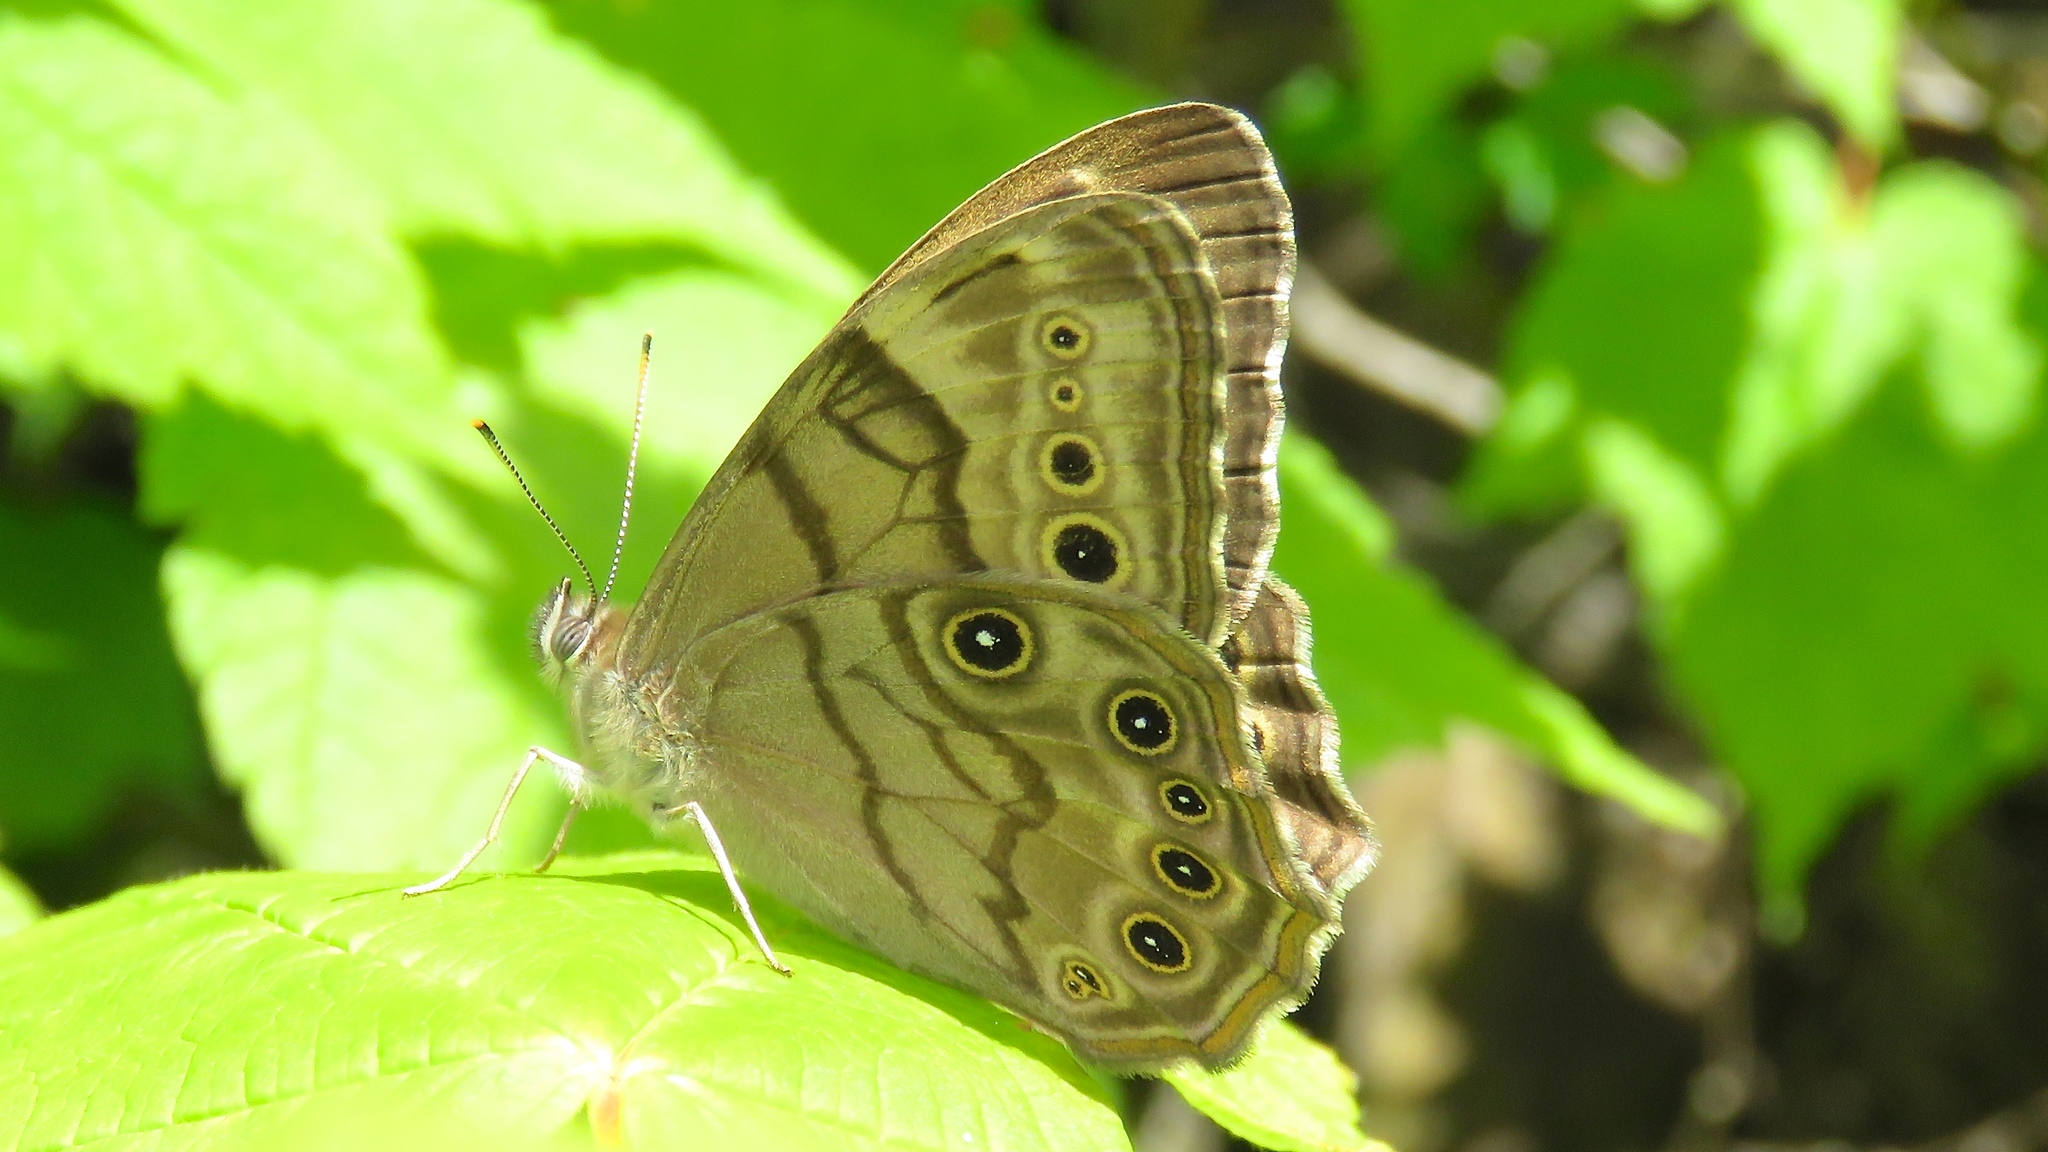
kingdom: Animalia
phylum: Arthropoda
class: Insecta
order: Lepidoptera
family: Nymphalidae
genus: Lethe
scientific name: Lethe anthedon
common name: Northern pearly-eye
